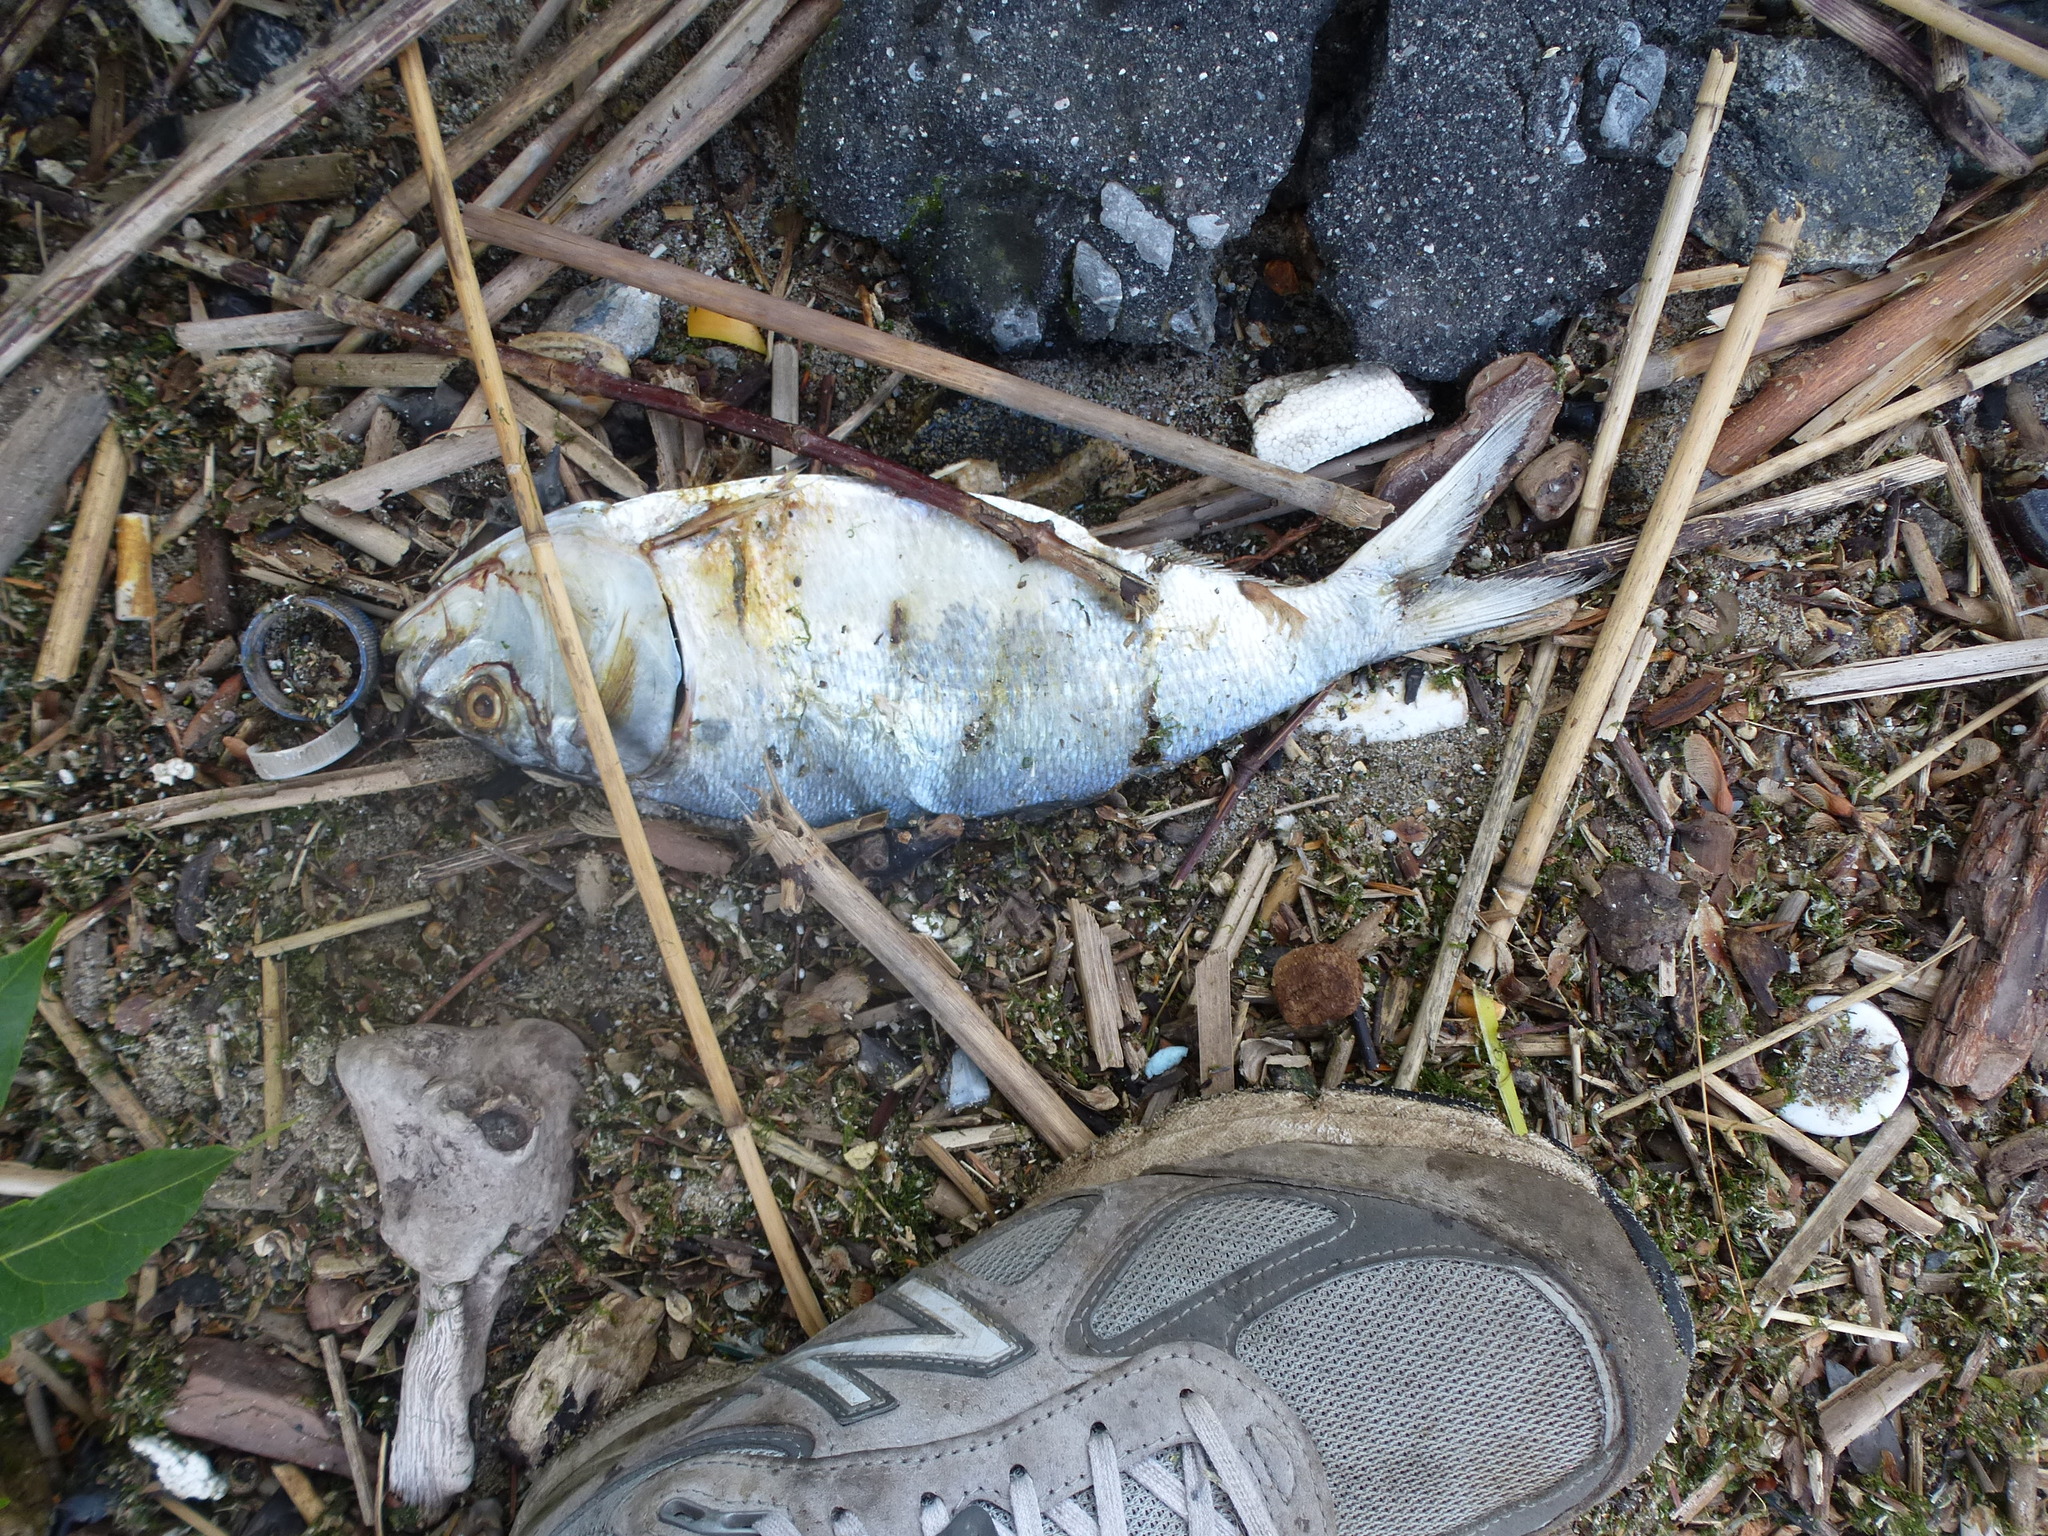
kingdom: Animalia
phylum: Chordata
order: Clupeiformes
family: Clupeidae
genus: Brevoortia
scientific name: Brevoortia tyrannus
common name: Atlantic menhaden
